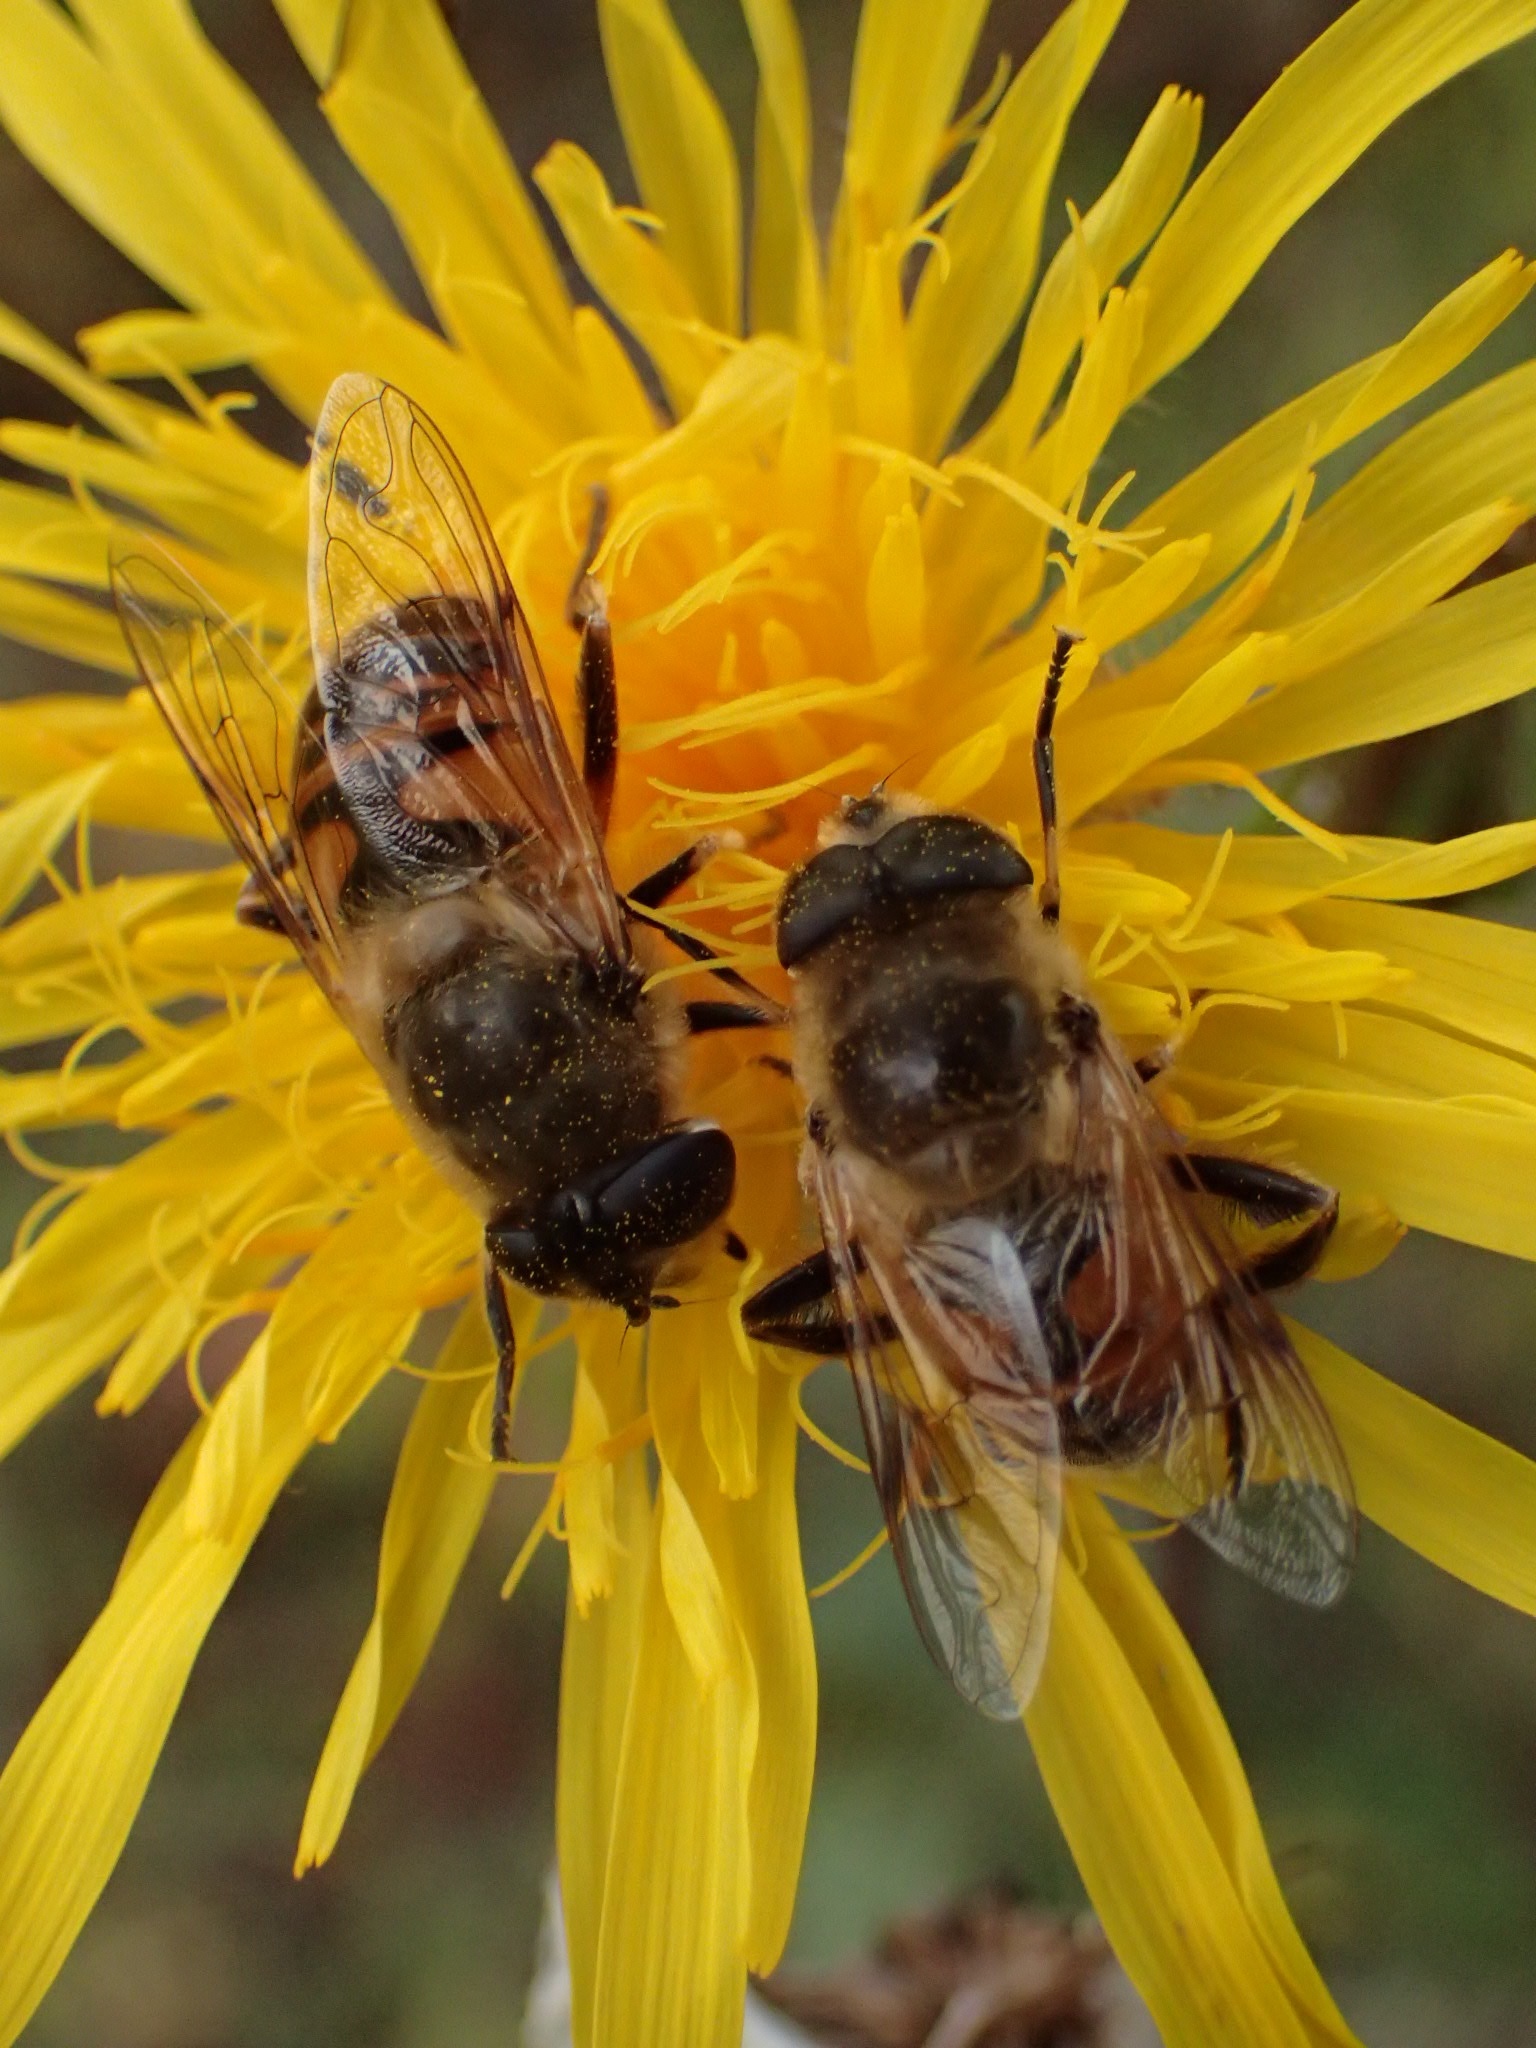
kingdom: Animalia
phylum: Arthropoda
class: Insecta
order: Diptera
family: Syrphidae
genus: Eristalis
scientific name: Eristalis tenax
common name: Drone fly
